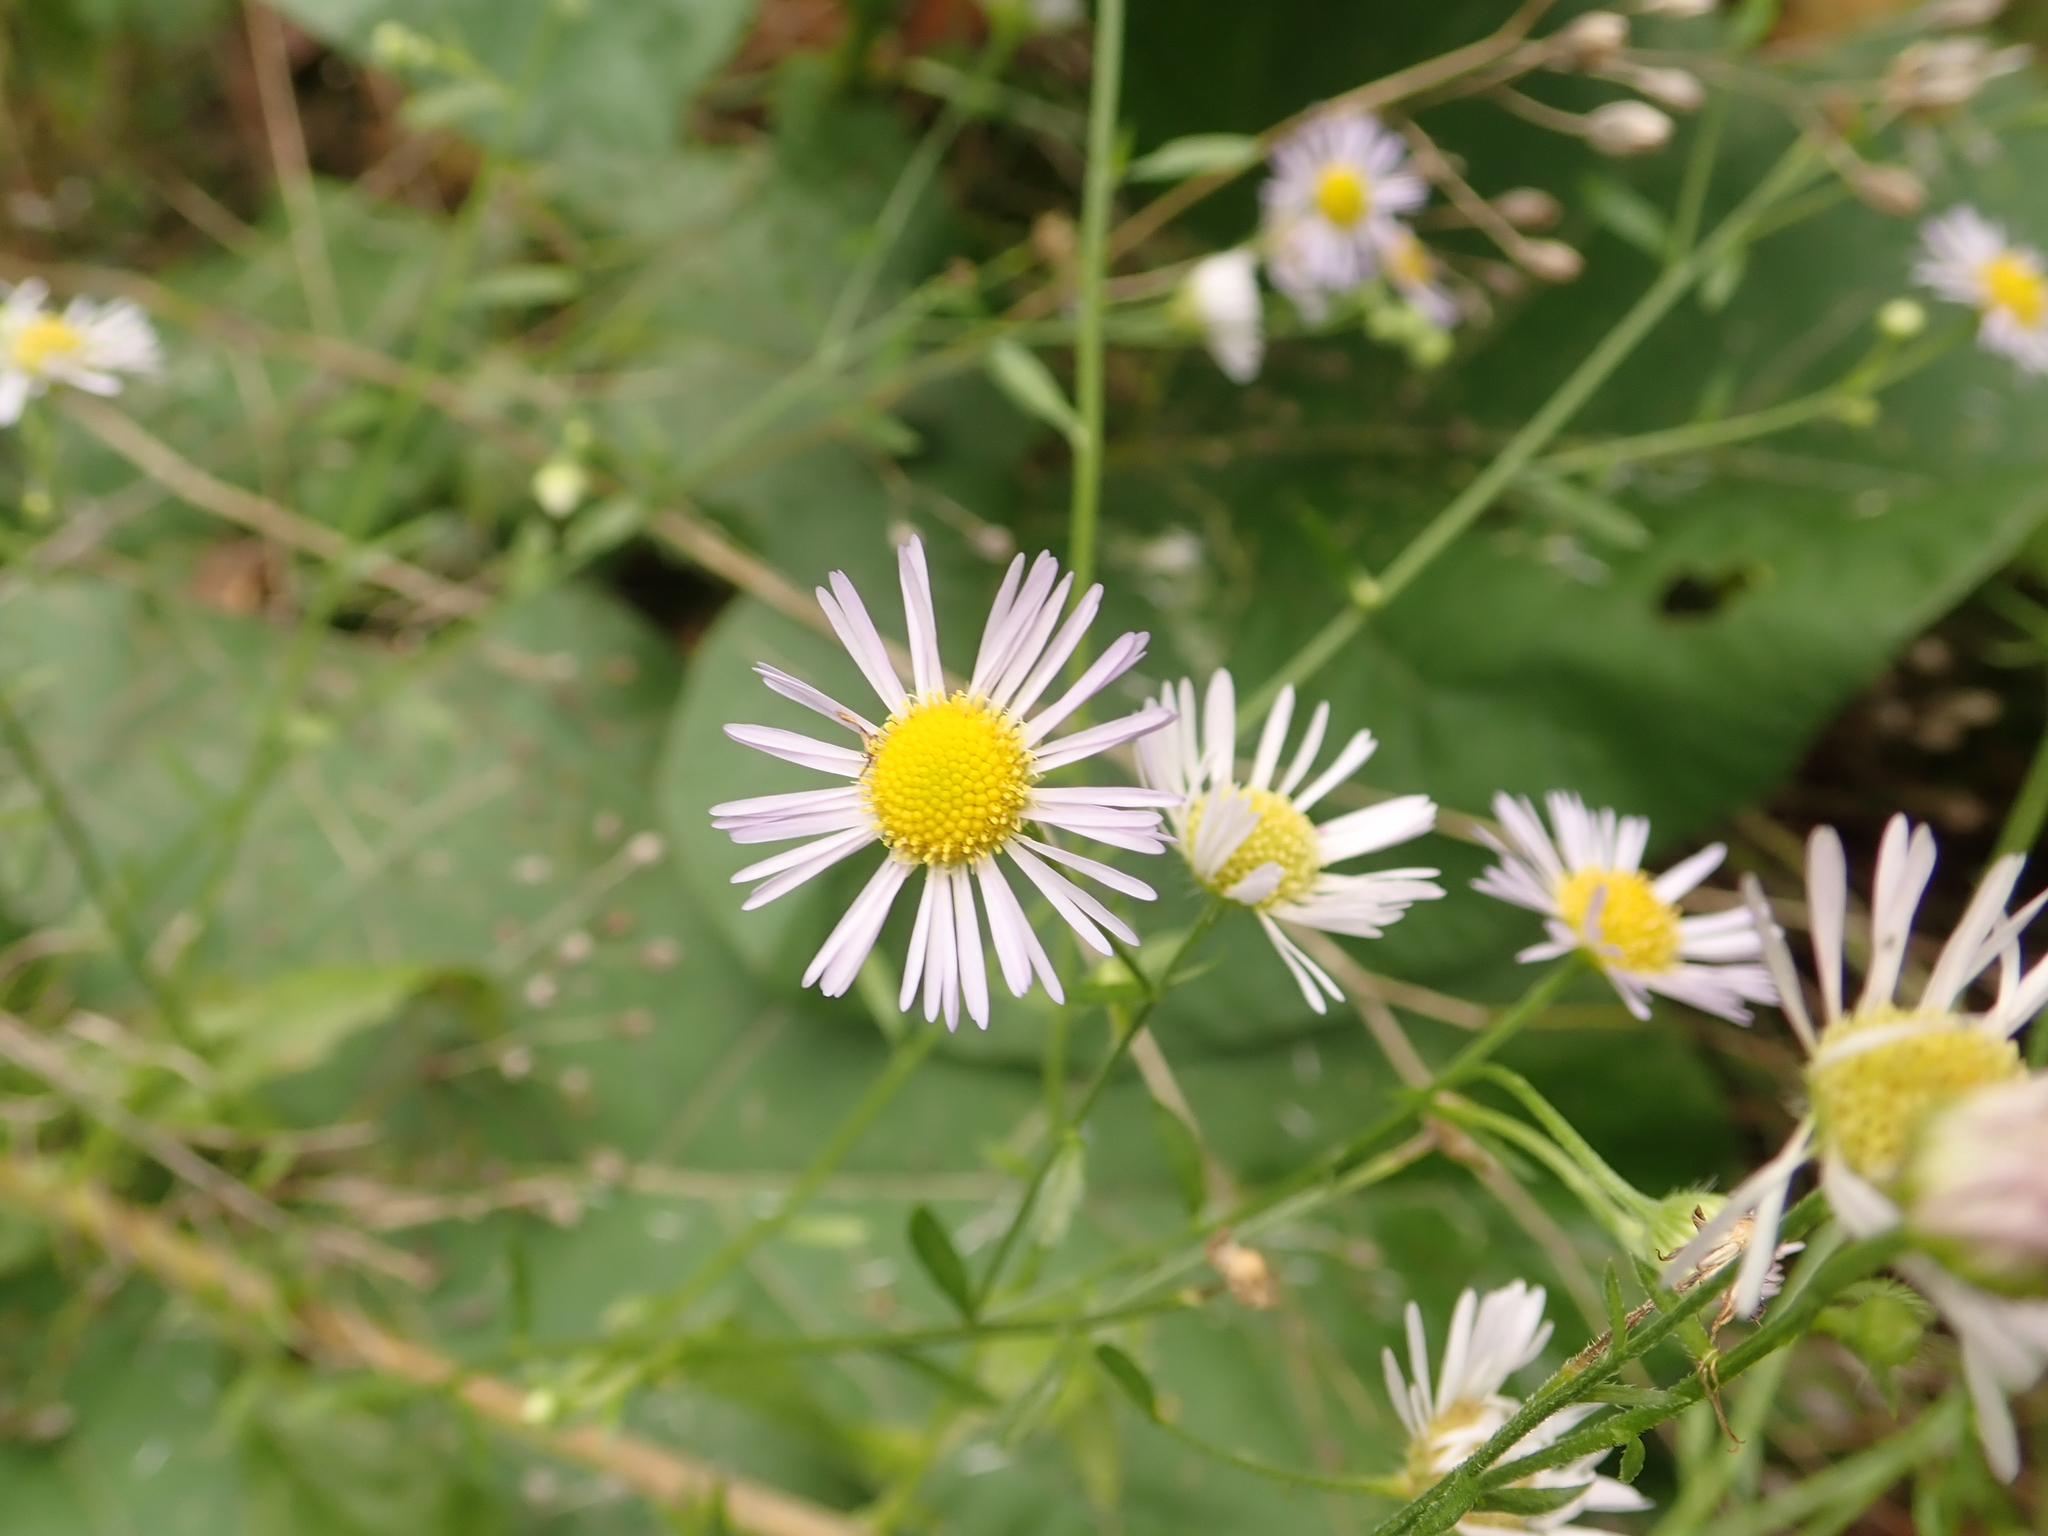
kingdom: Plantae
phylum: Tracheophyta
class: Magnoliopsida
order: Asterales
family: Asteraceae
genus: Erigeron
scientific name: Erigeron annuus
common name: Tall fleabane
